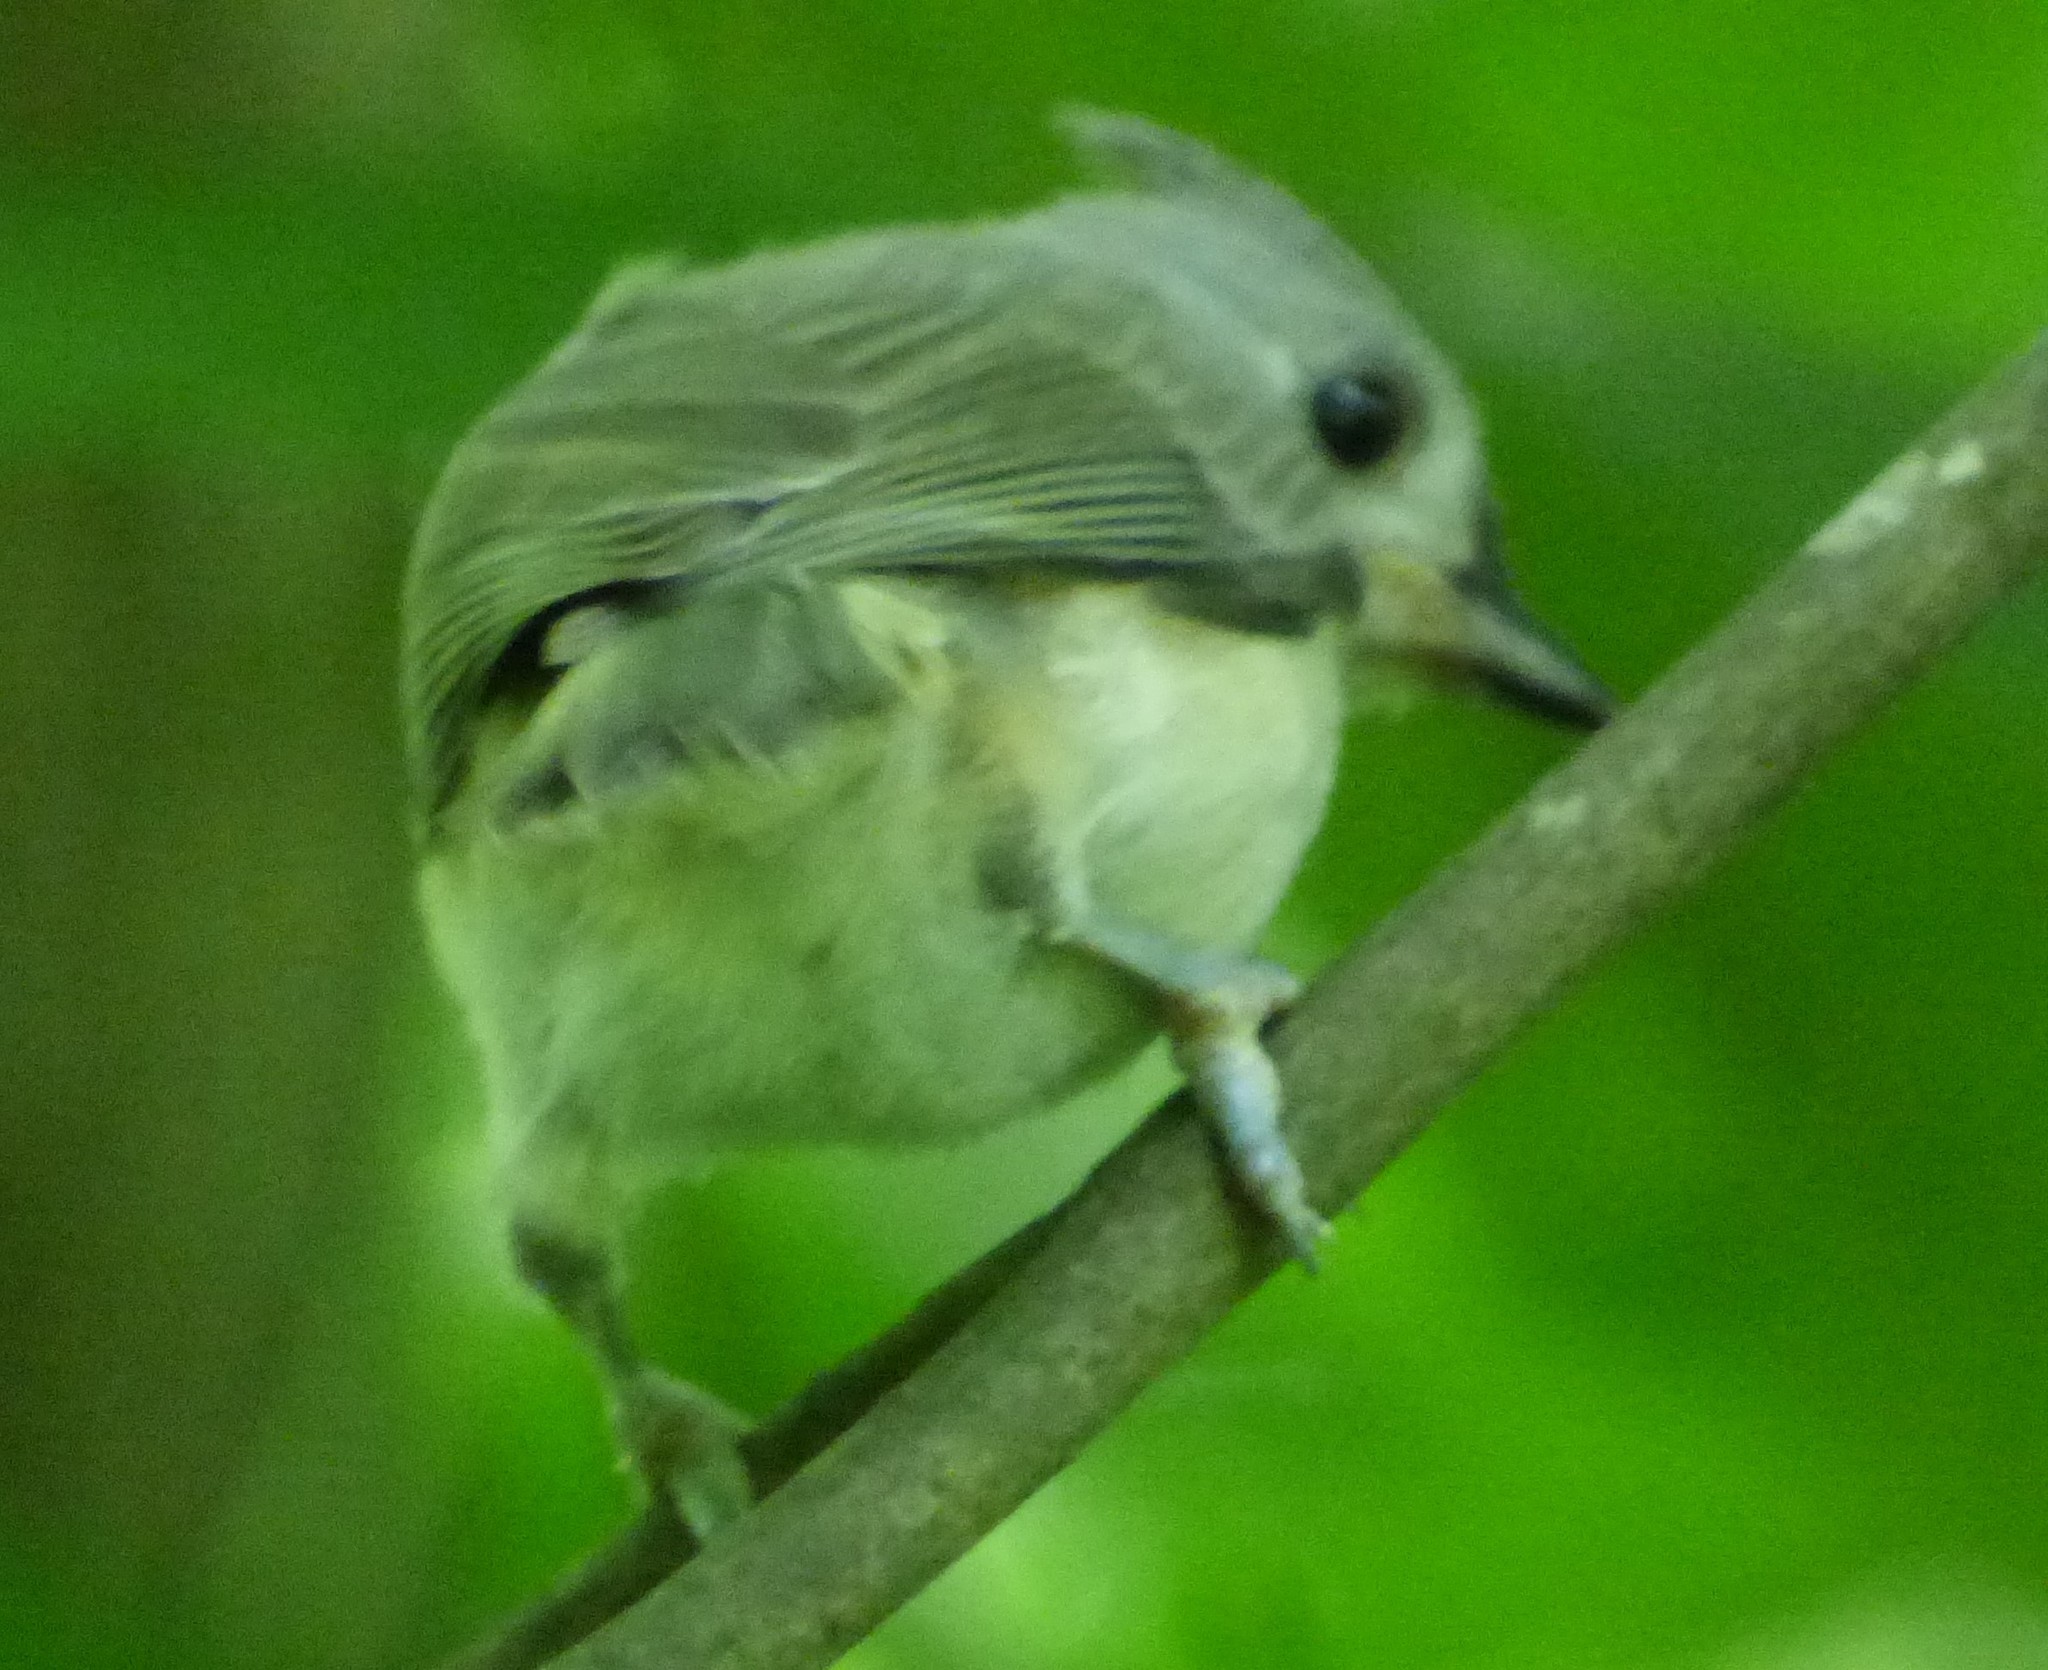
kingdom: Animalia
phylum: Chordata
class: Aves
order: Passeriformes
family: Paridae
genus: Baeolophus
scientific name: Baeolophus bicolor
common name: Tufted titmouse
